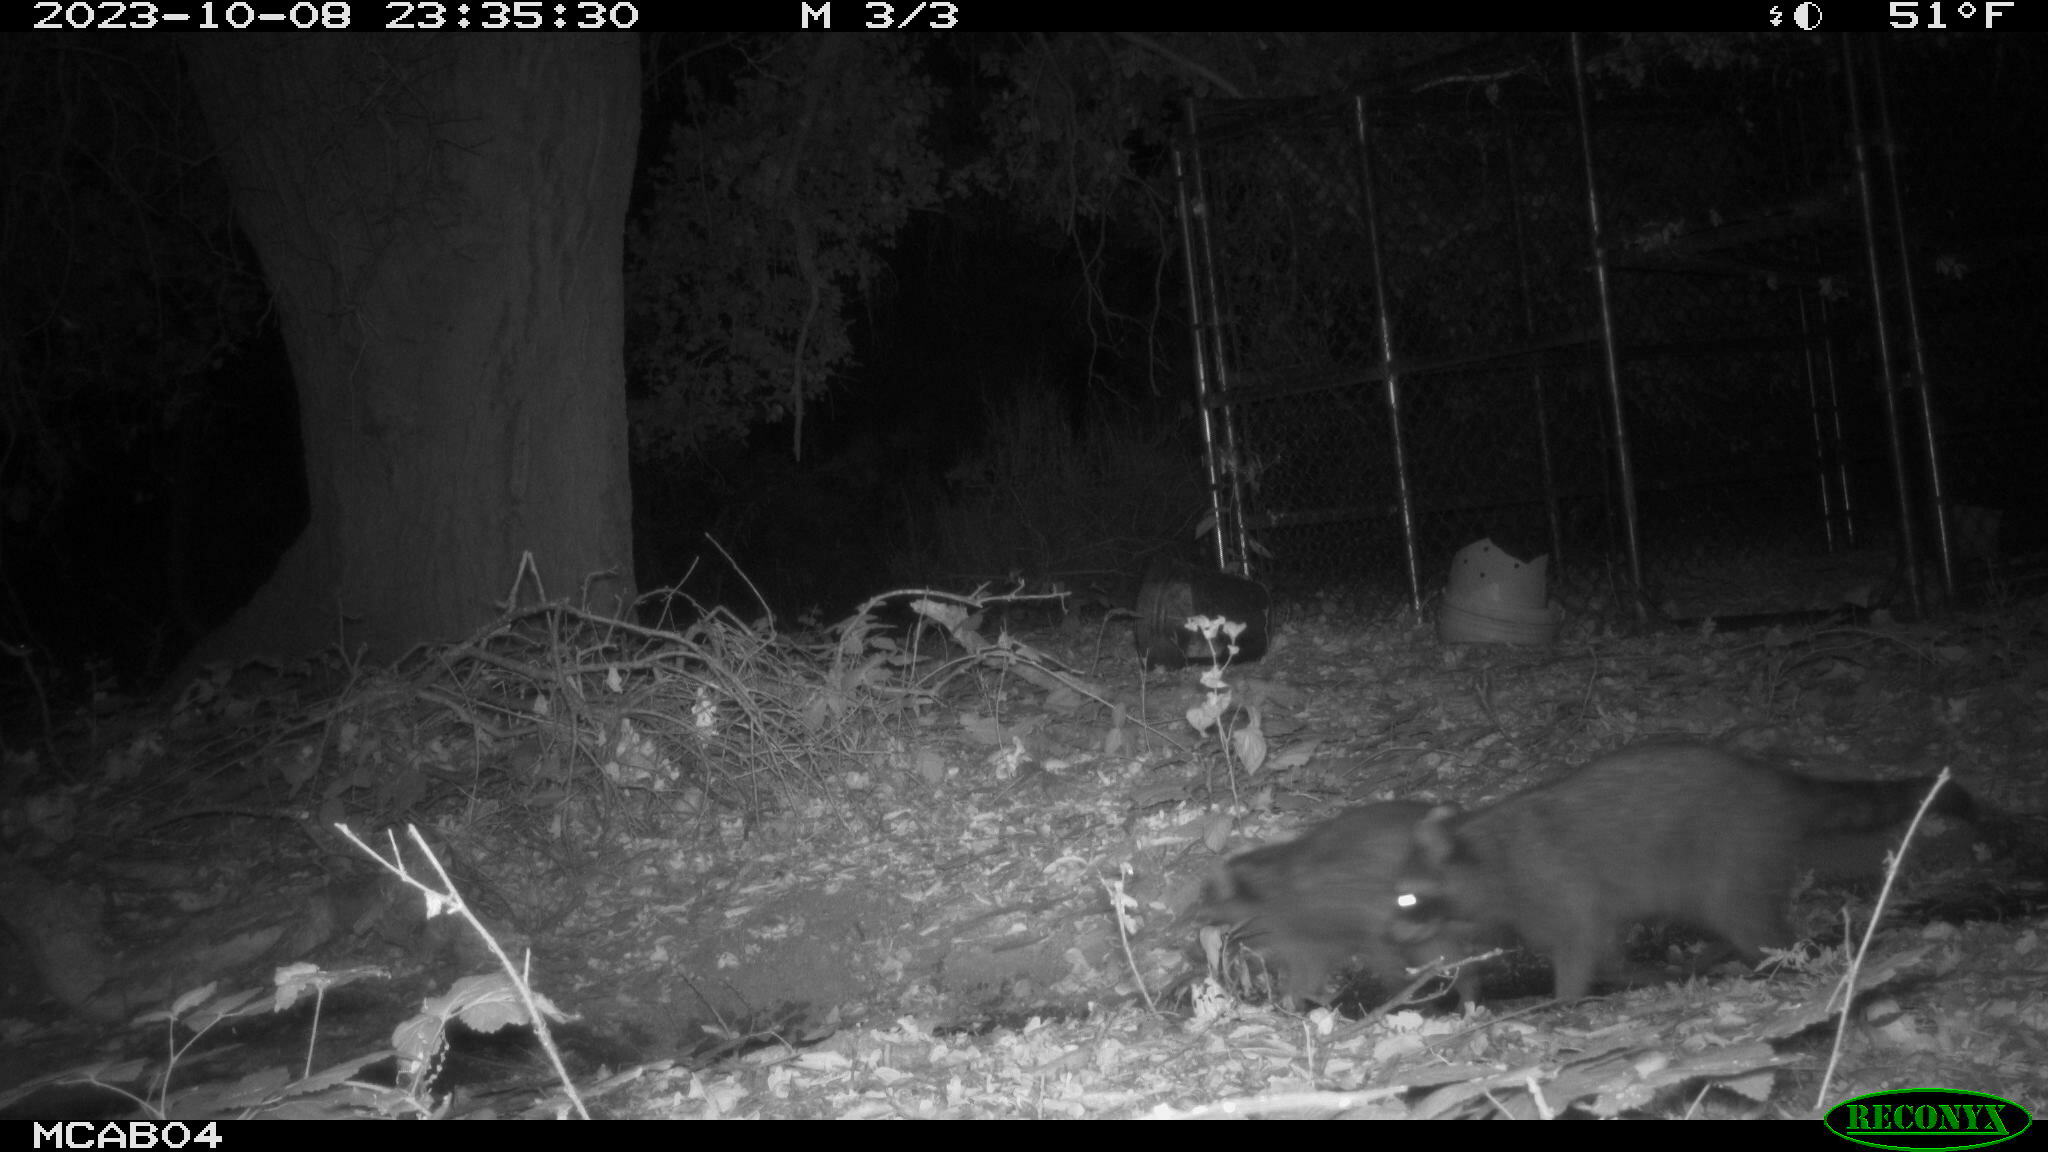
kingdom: Animalia
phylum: Chordata
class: Mammalia
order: Carnivora
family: Procyonidae
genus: Procyon
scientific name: Procyon lotor
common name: Raccoon
